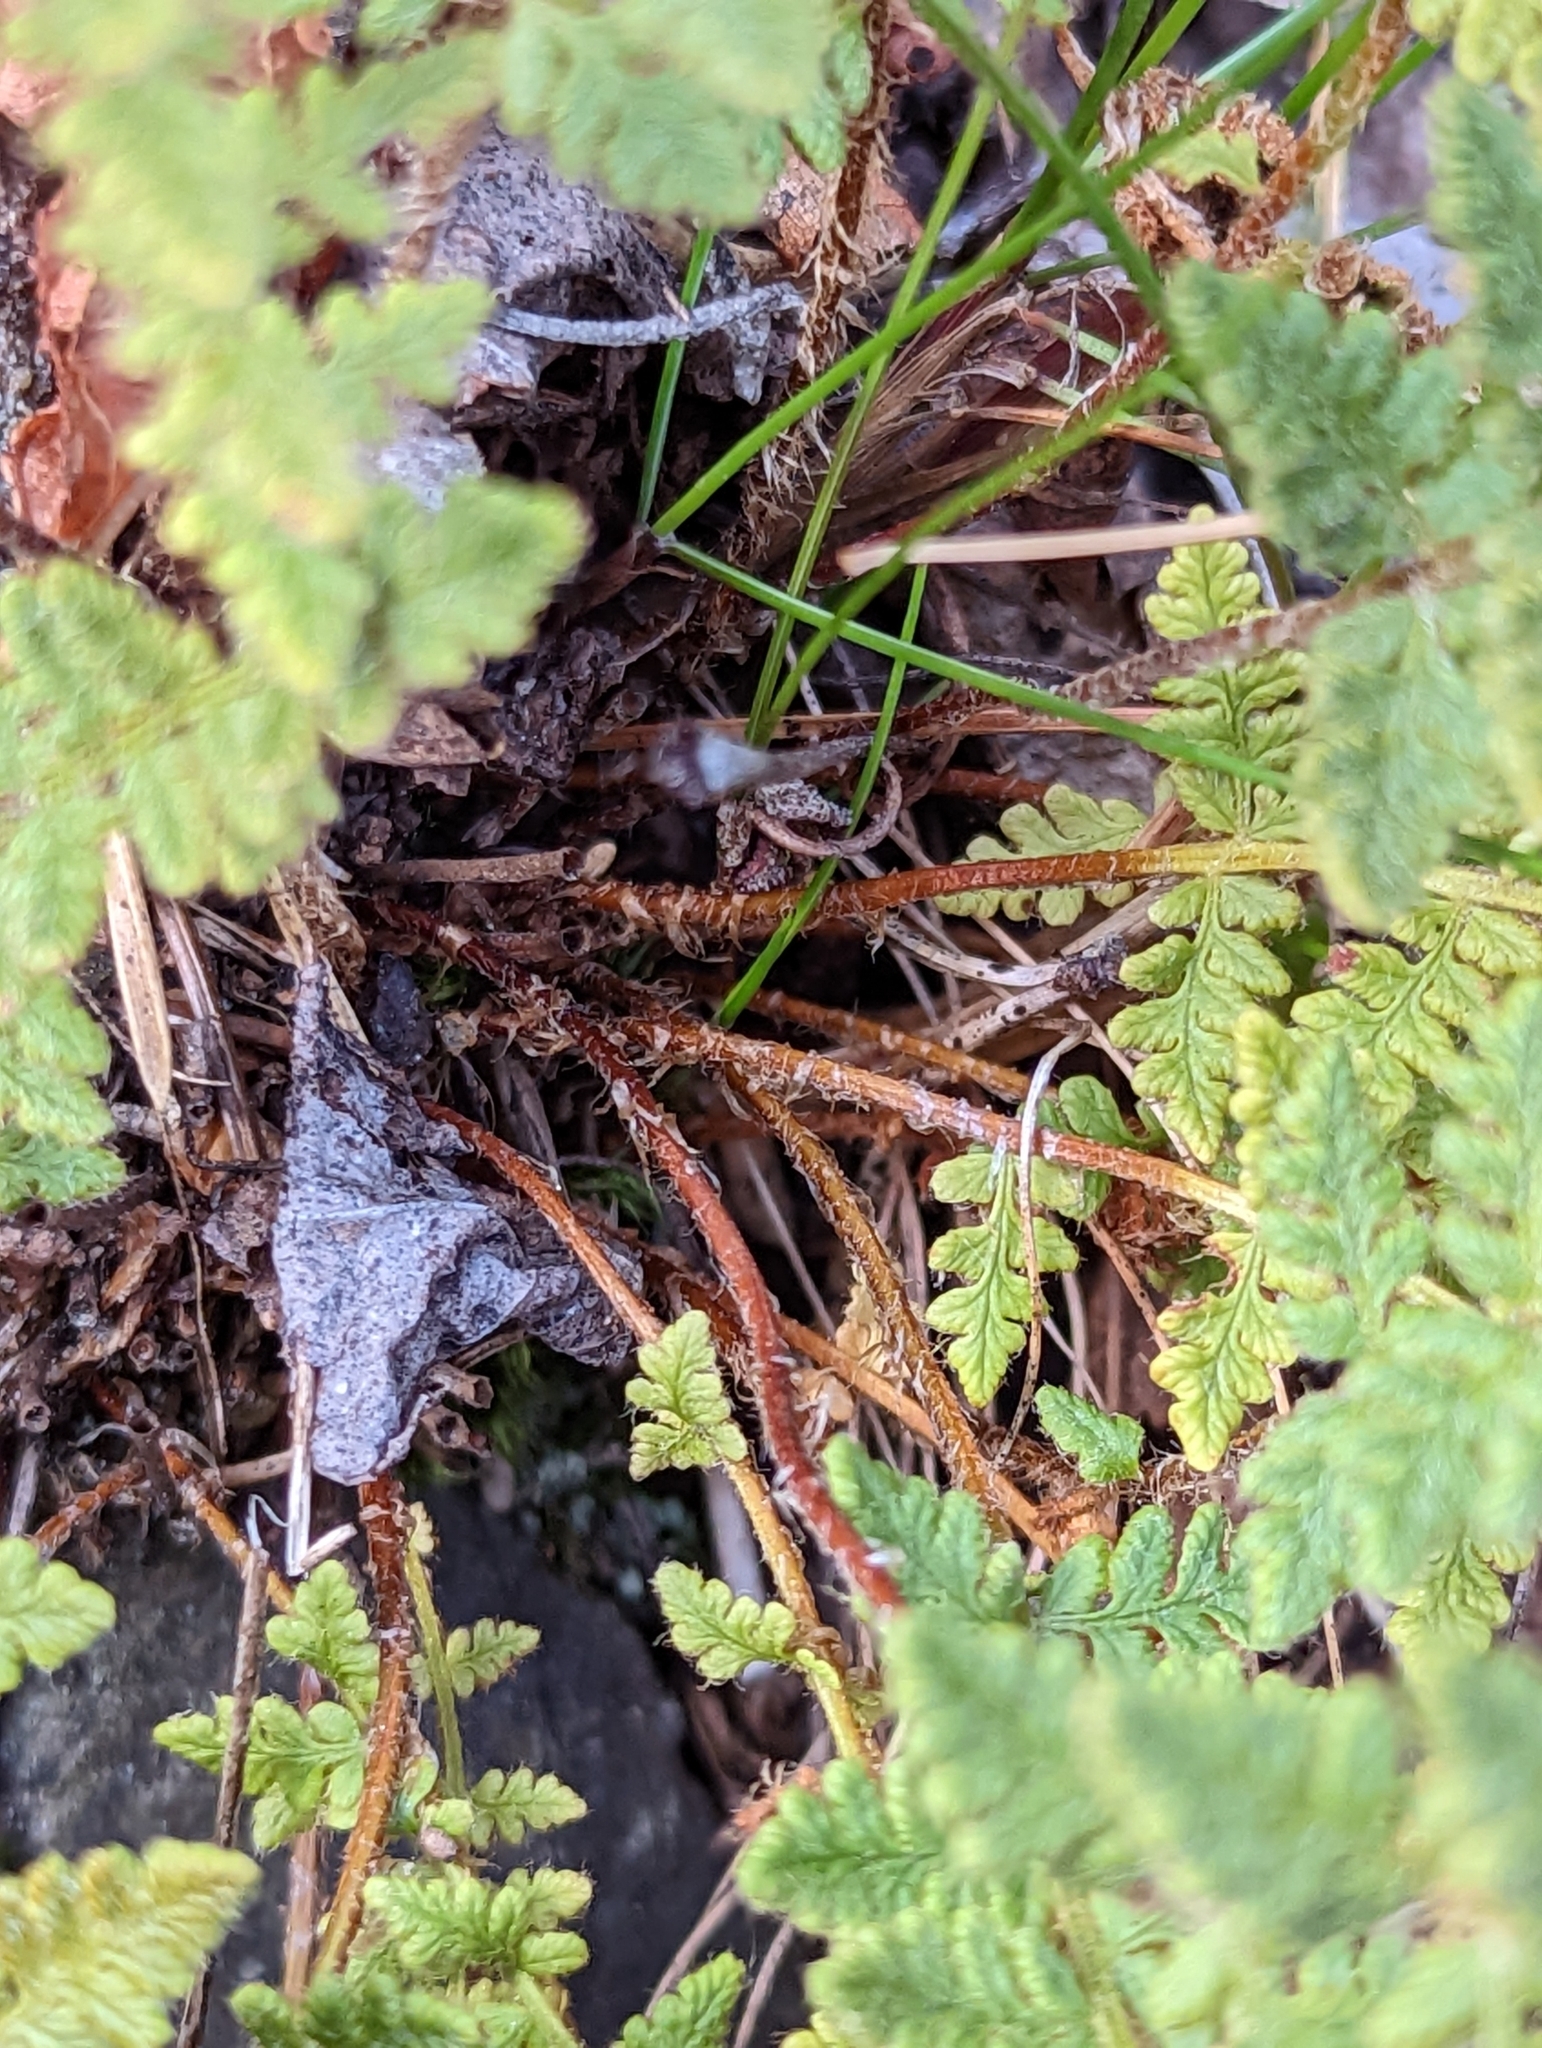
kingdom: Plantae
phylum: Tracheophyta
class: Polypodiopsida
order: Polypodiales
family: Woodsiaceae
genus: Woodsia
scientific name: Woodsia ilvensis
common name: Fragrant woodsia
